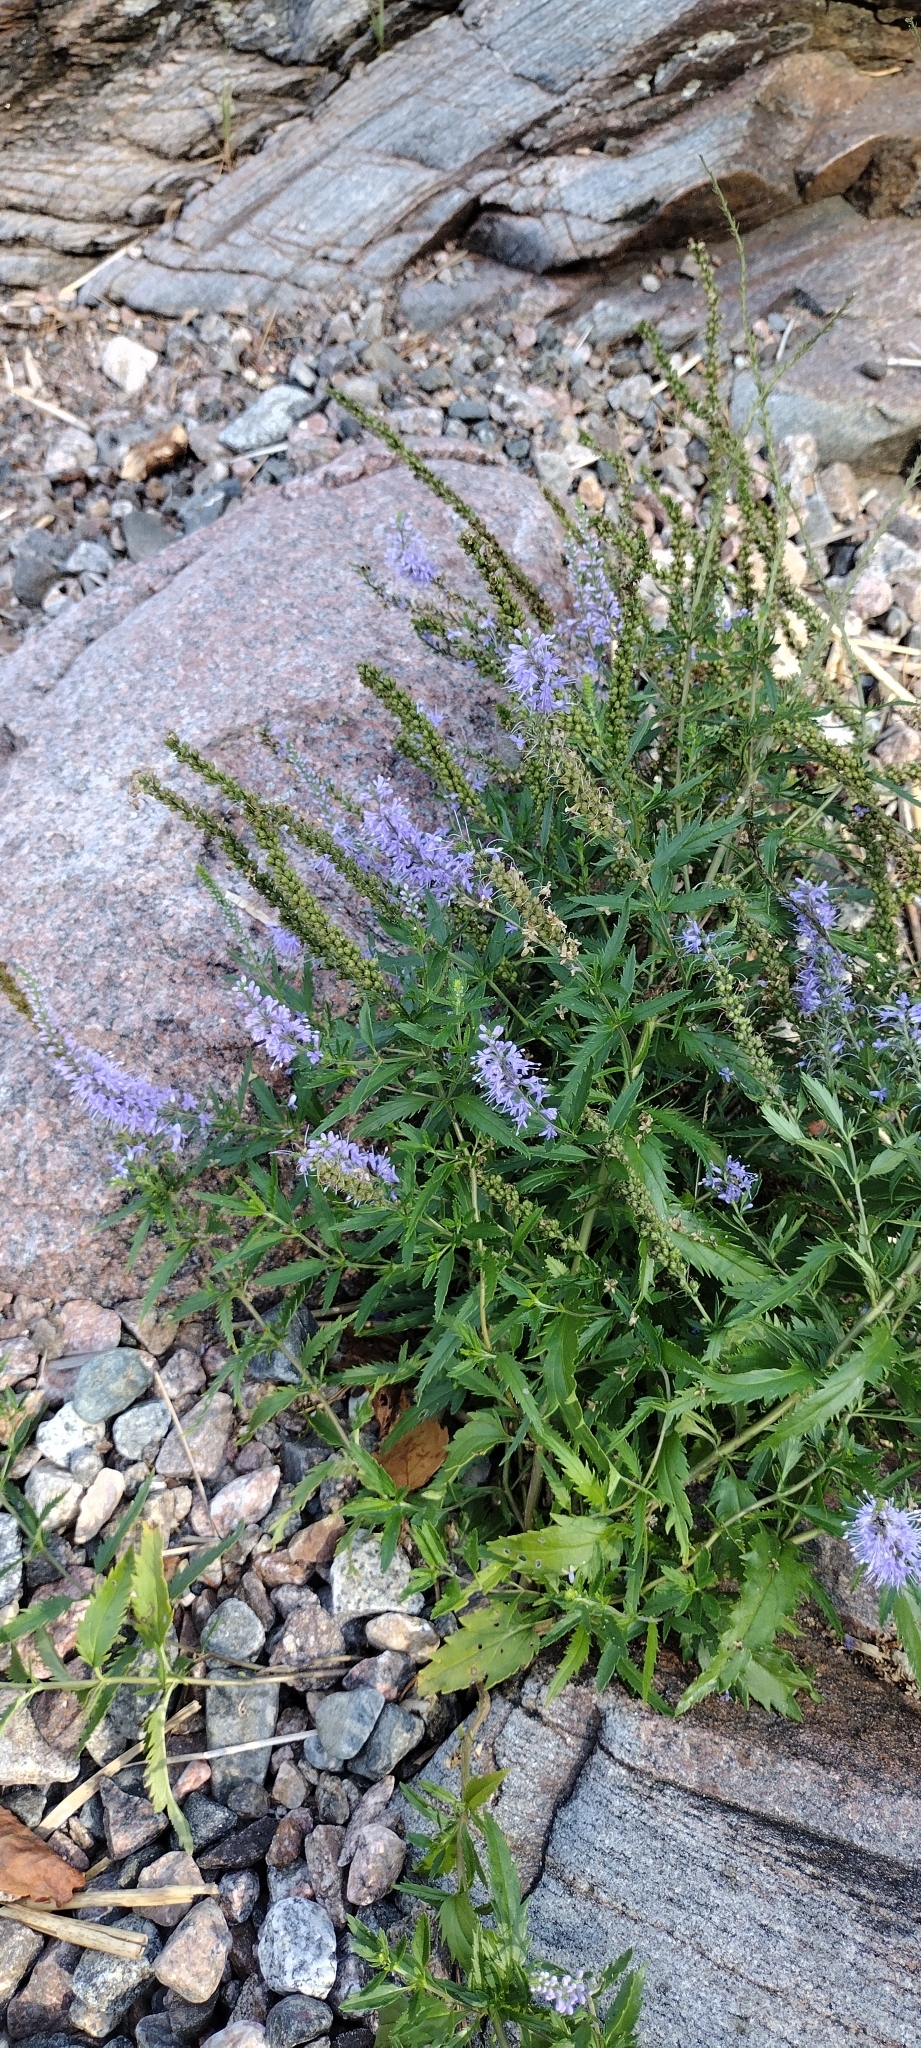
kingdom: Plantae
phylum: Tracheophyta
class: Magnoliopsida
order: Lamiales
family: Plantaginaceae
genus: Veronica
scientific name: Veronica longifolia
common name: Garden speedwell
